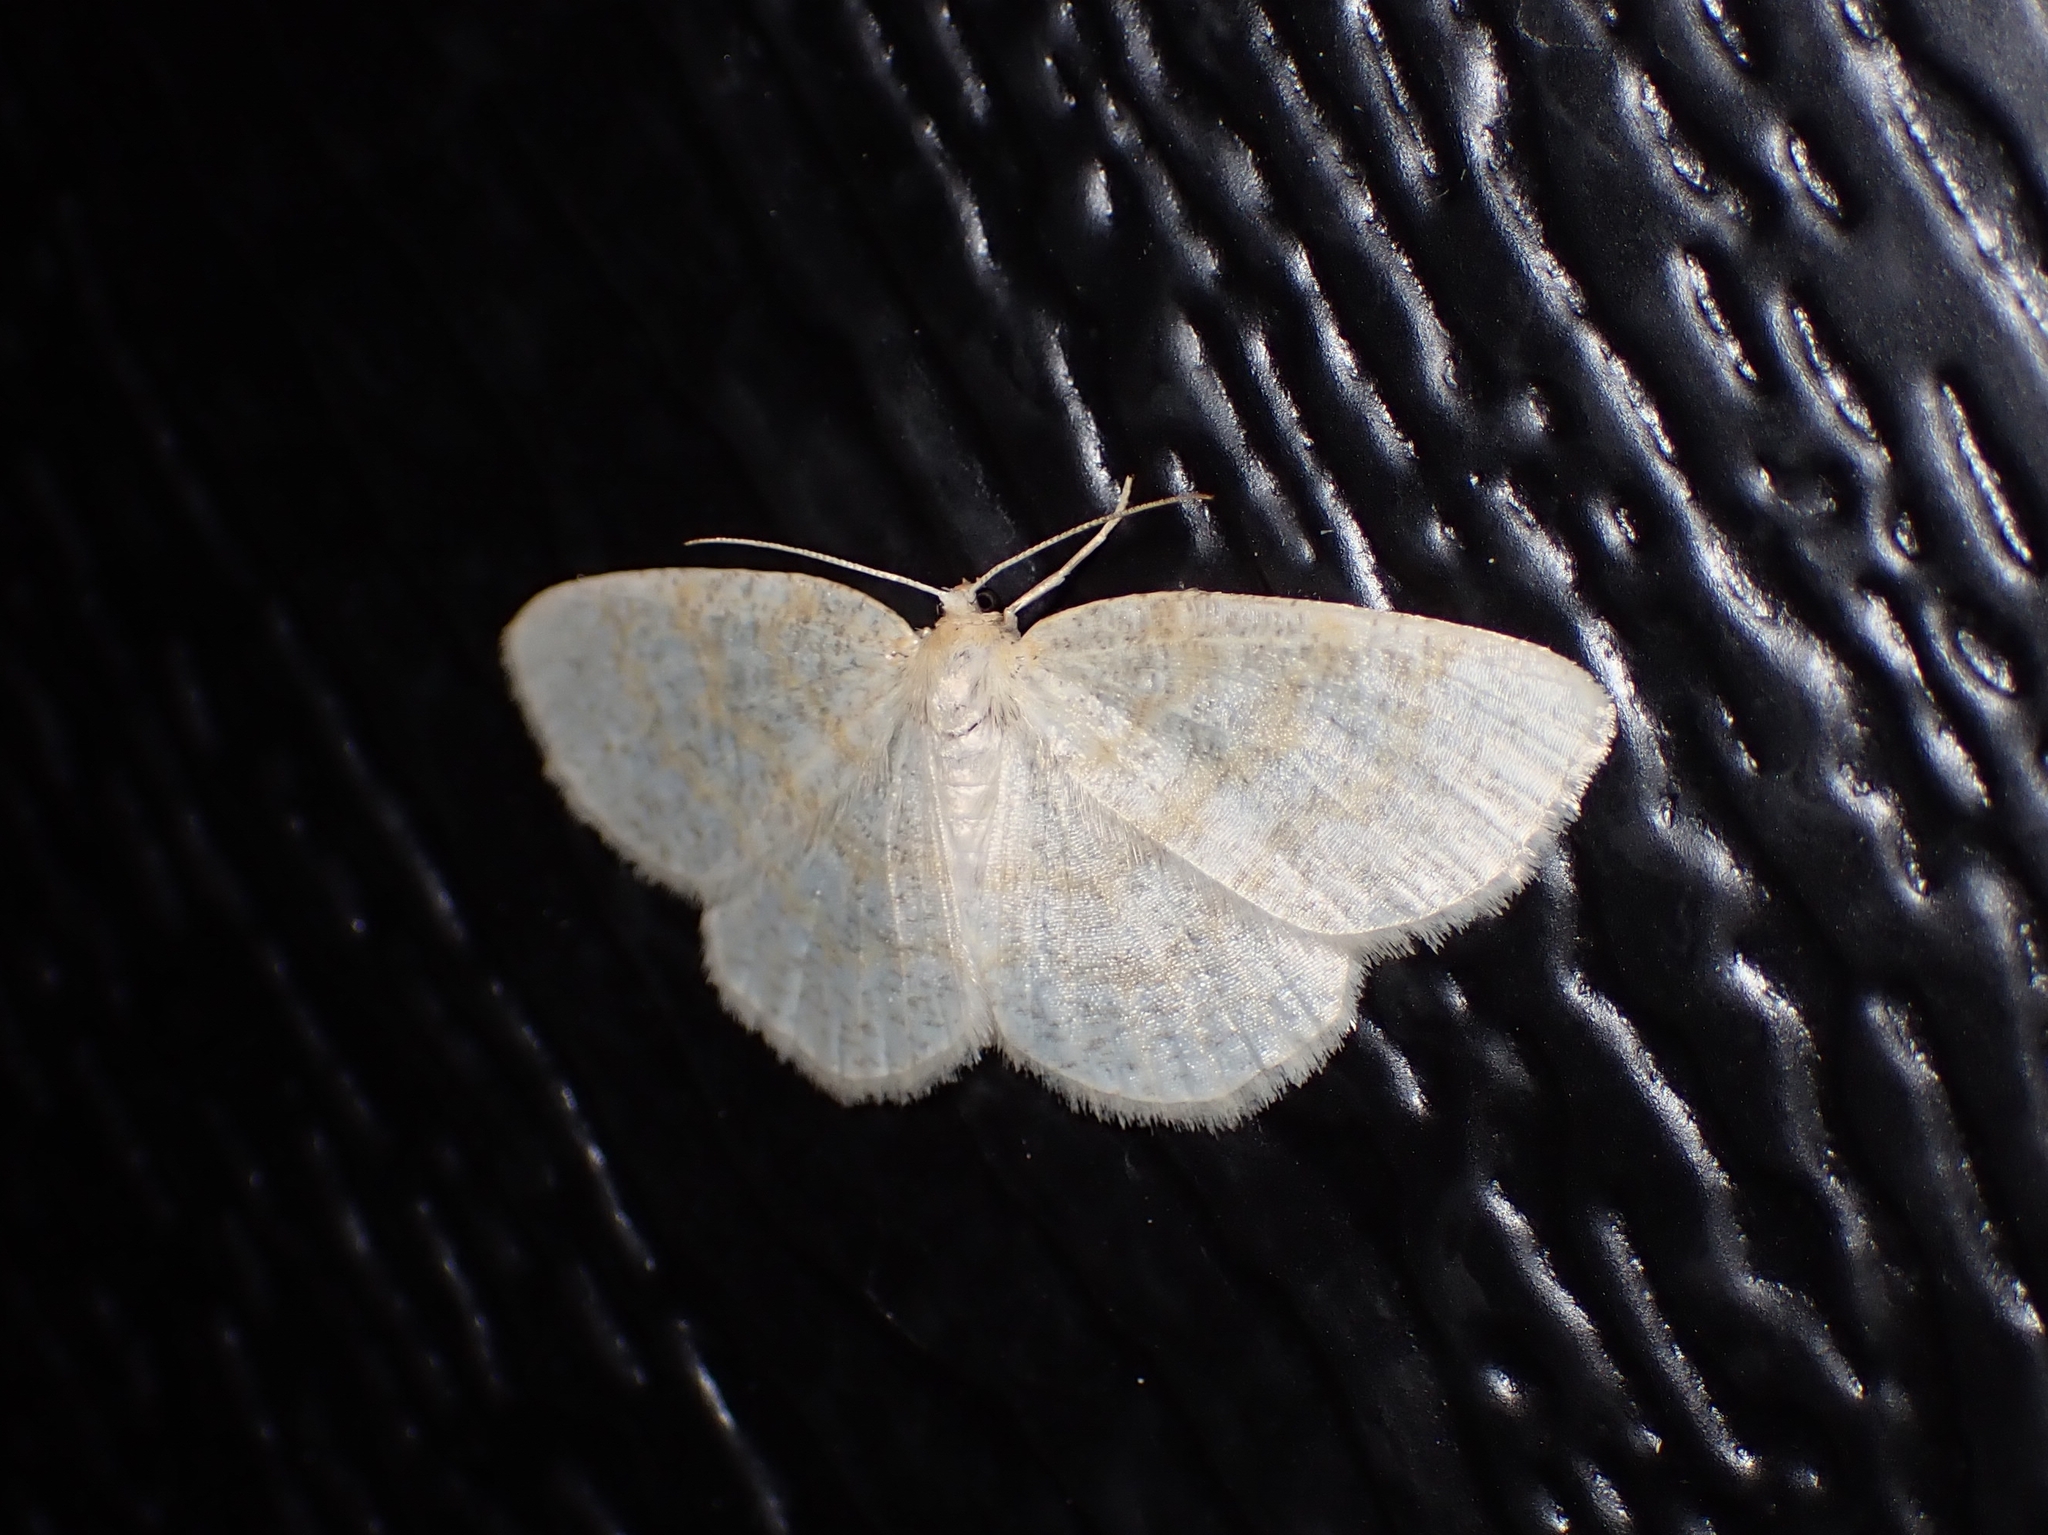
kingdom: Animalia
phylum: Arthropoda
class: Insecta
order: Lepidoptera
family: Geometridae
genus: Cabera
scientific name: Cabera erythemaria
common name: Yellow-dusted cream moth
